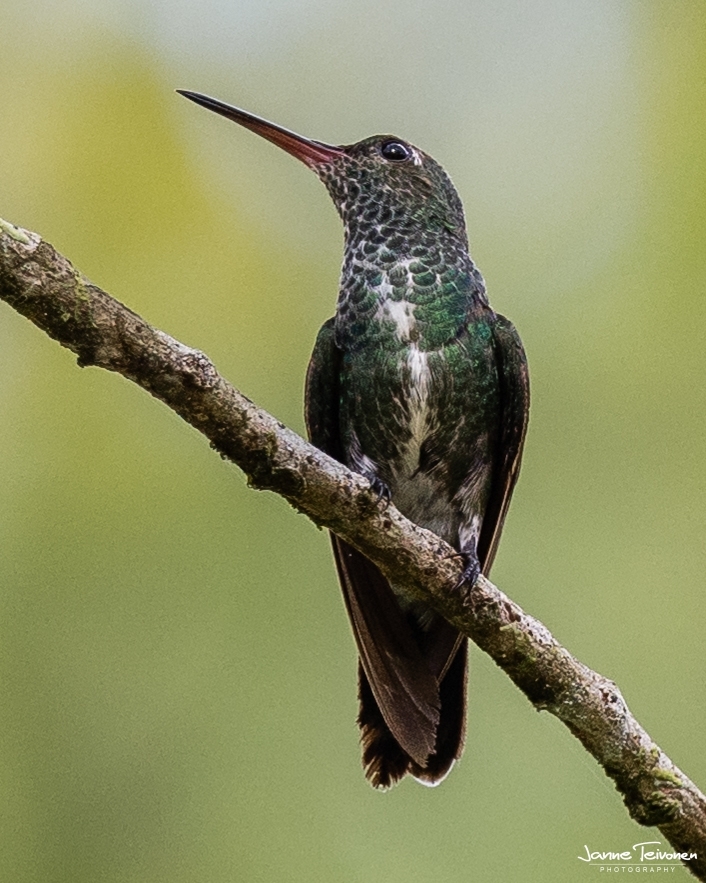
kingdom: Animalia
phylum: Chordata
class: Aves
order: Apodiformes
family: Trochilidae
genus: Chionomesa
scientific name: Chionomesa fimbriata
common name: Glittering-throated emerald
